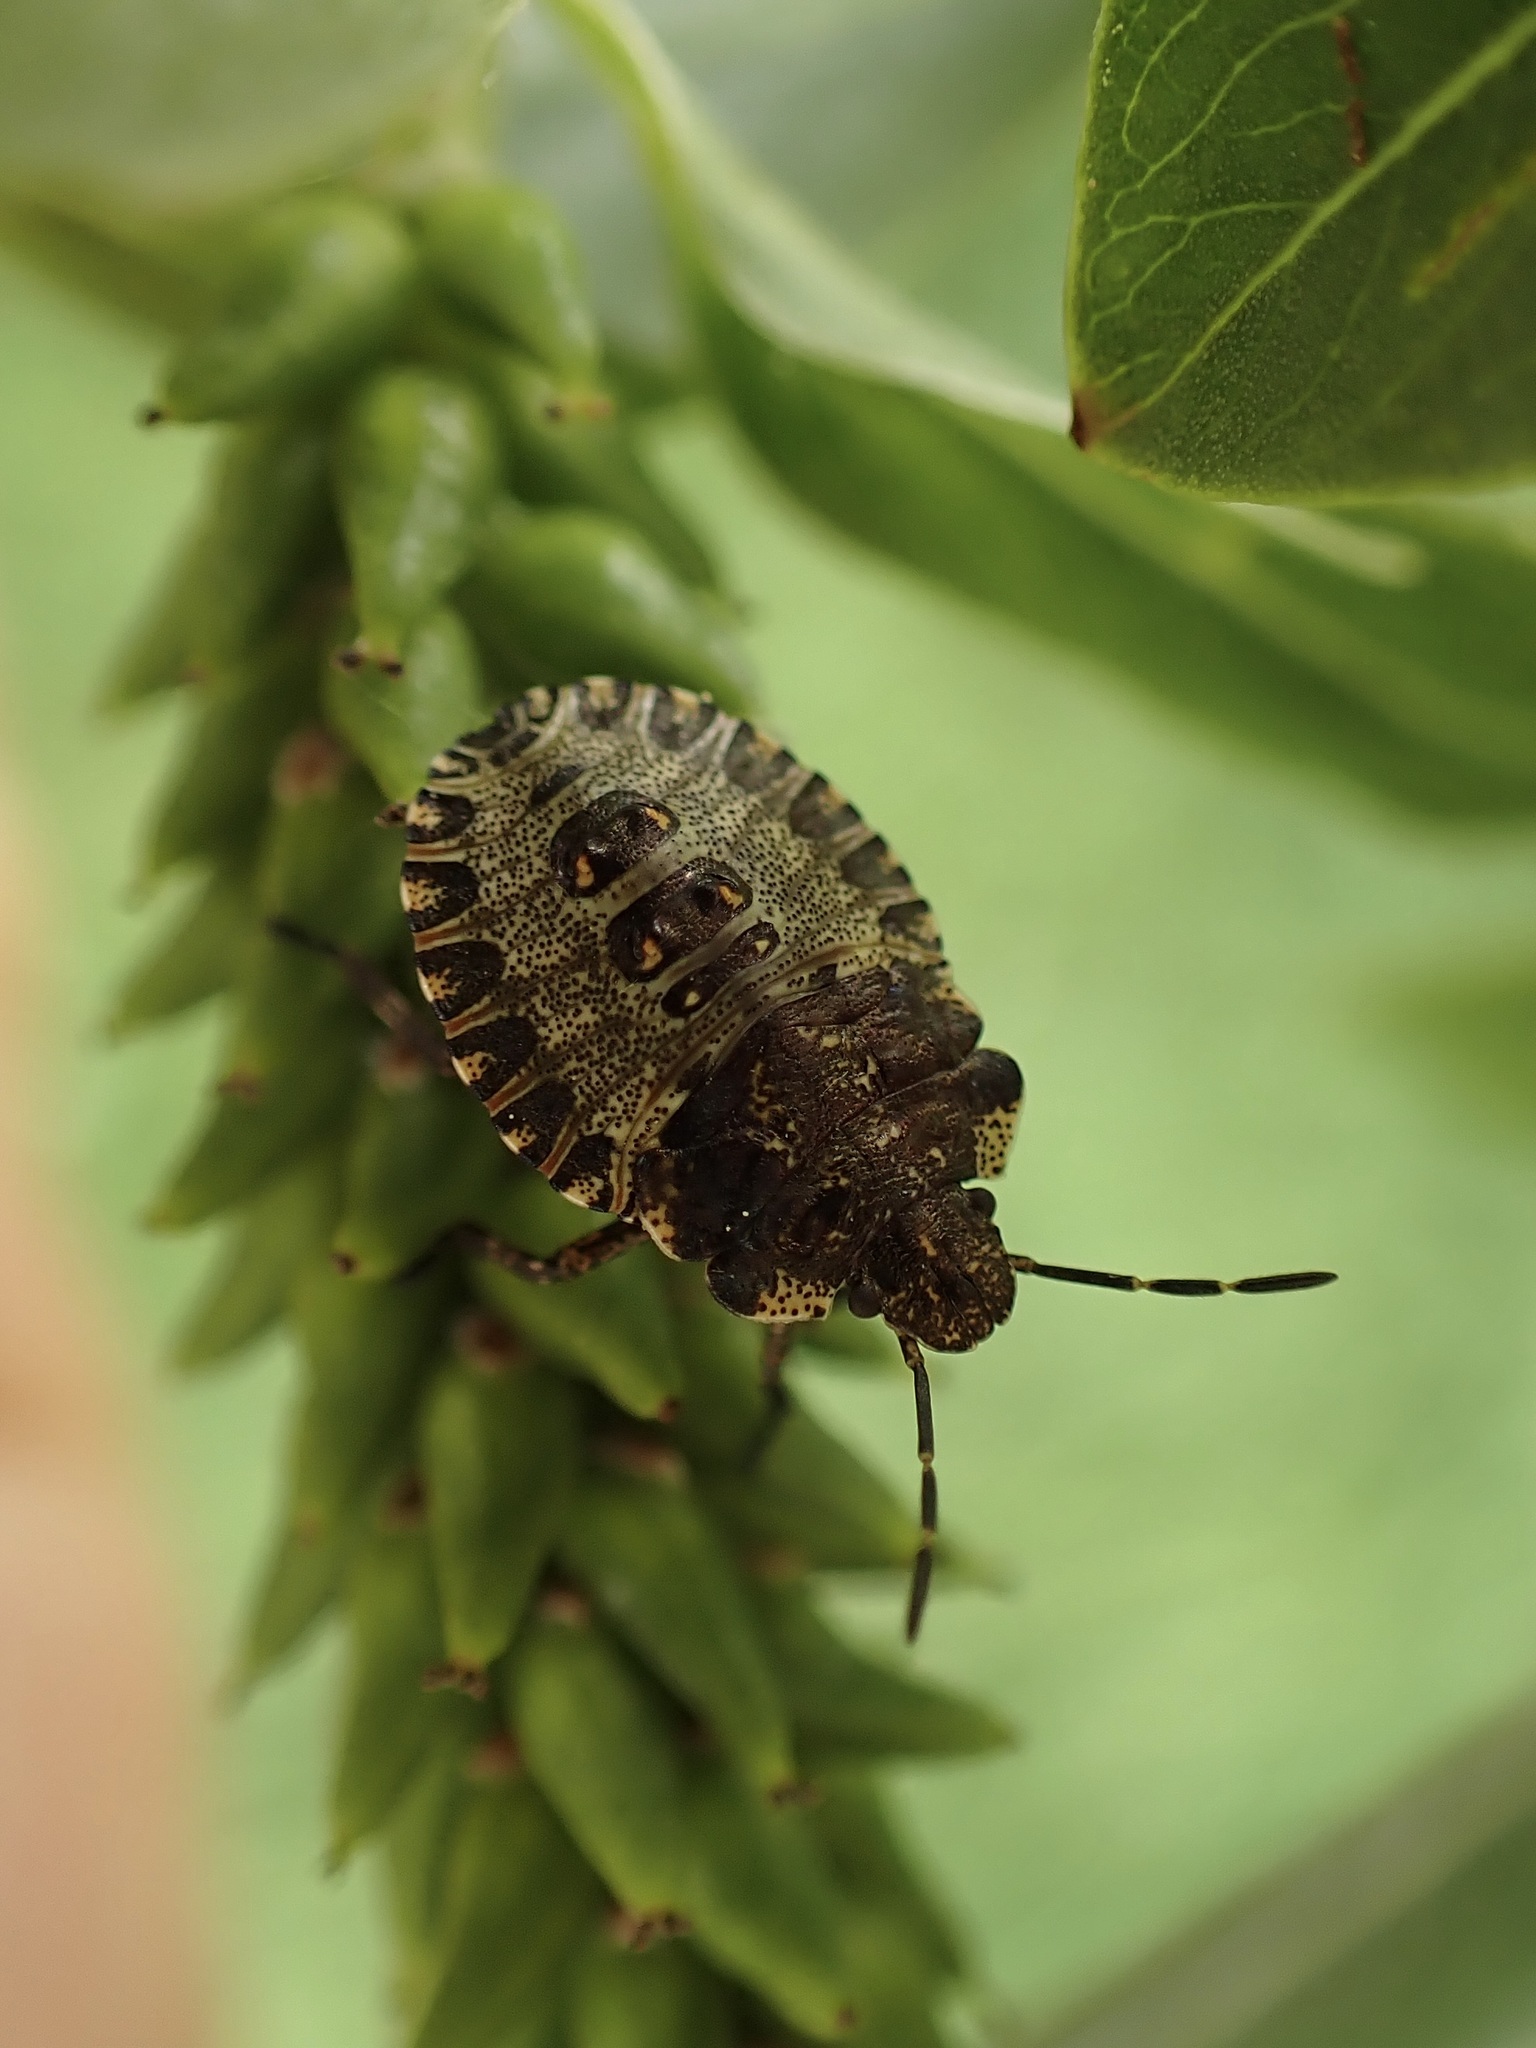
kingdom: Animalia
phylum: Arthropoda
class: Insecta
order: Hemiptera
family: Pentatomidae
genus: Pentatoma
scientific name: Pentatoma rufipes
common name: Forest bug
